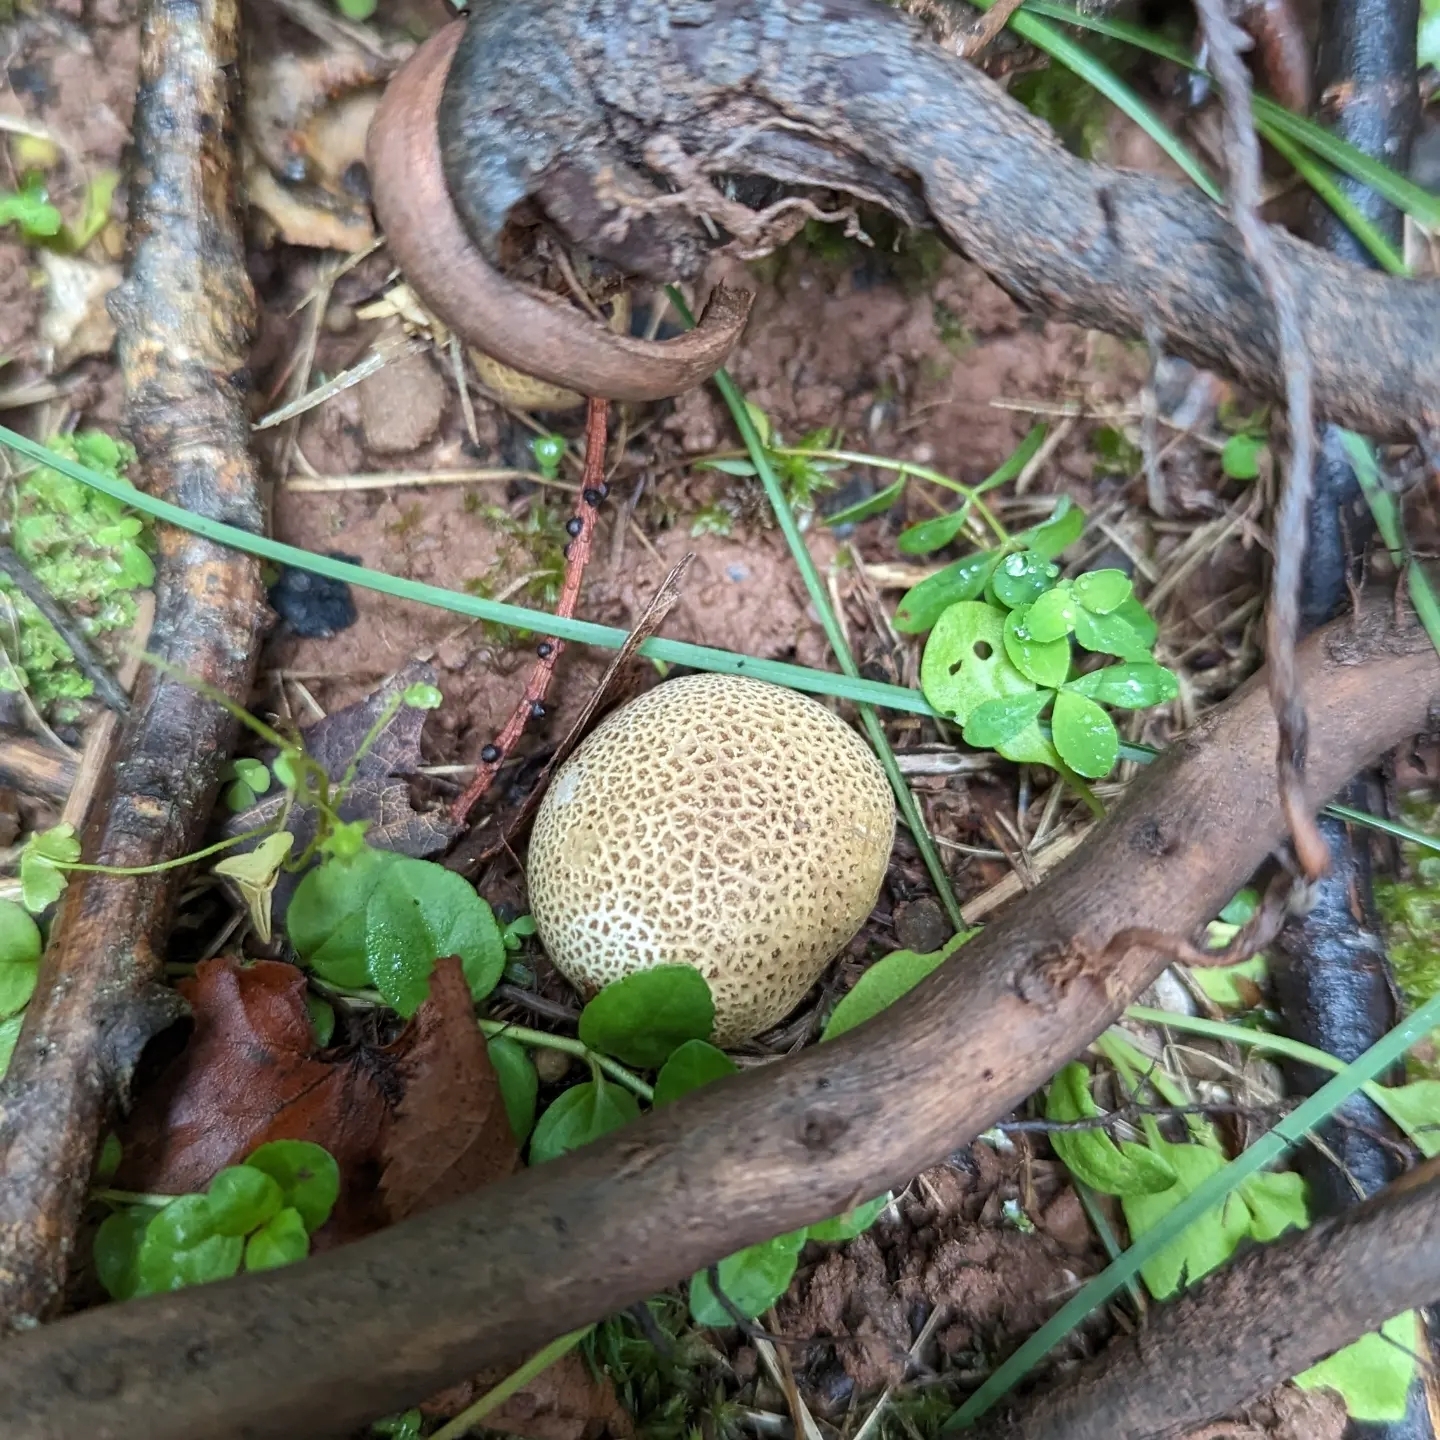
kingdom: Fungi
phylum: Basidiomycota
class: Agaricomycetes
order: Boletales
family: Sclerodermataceae
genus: Scleroderma
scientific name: Scleroderma citrinum
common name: Common earthball
